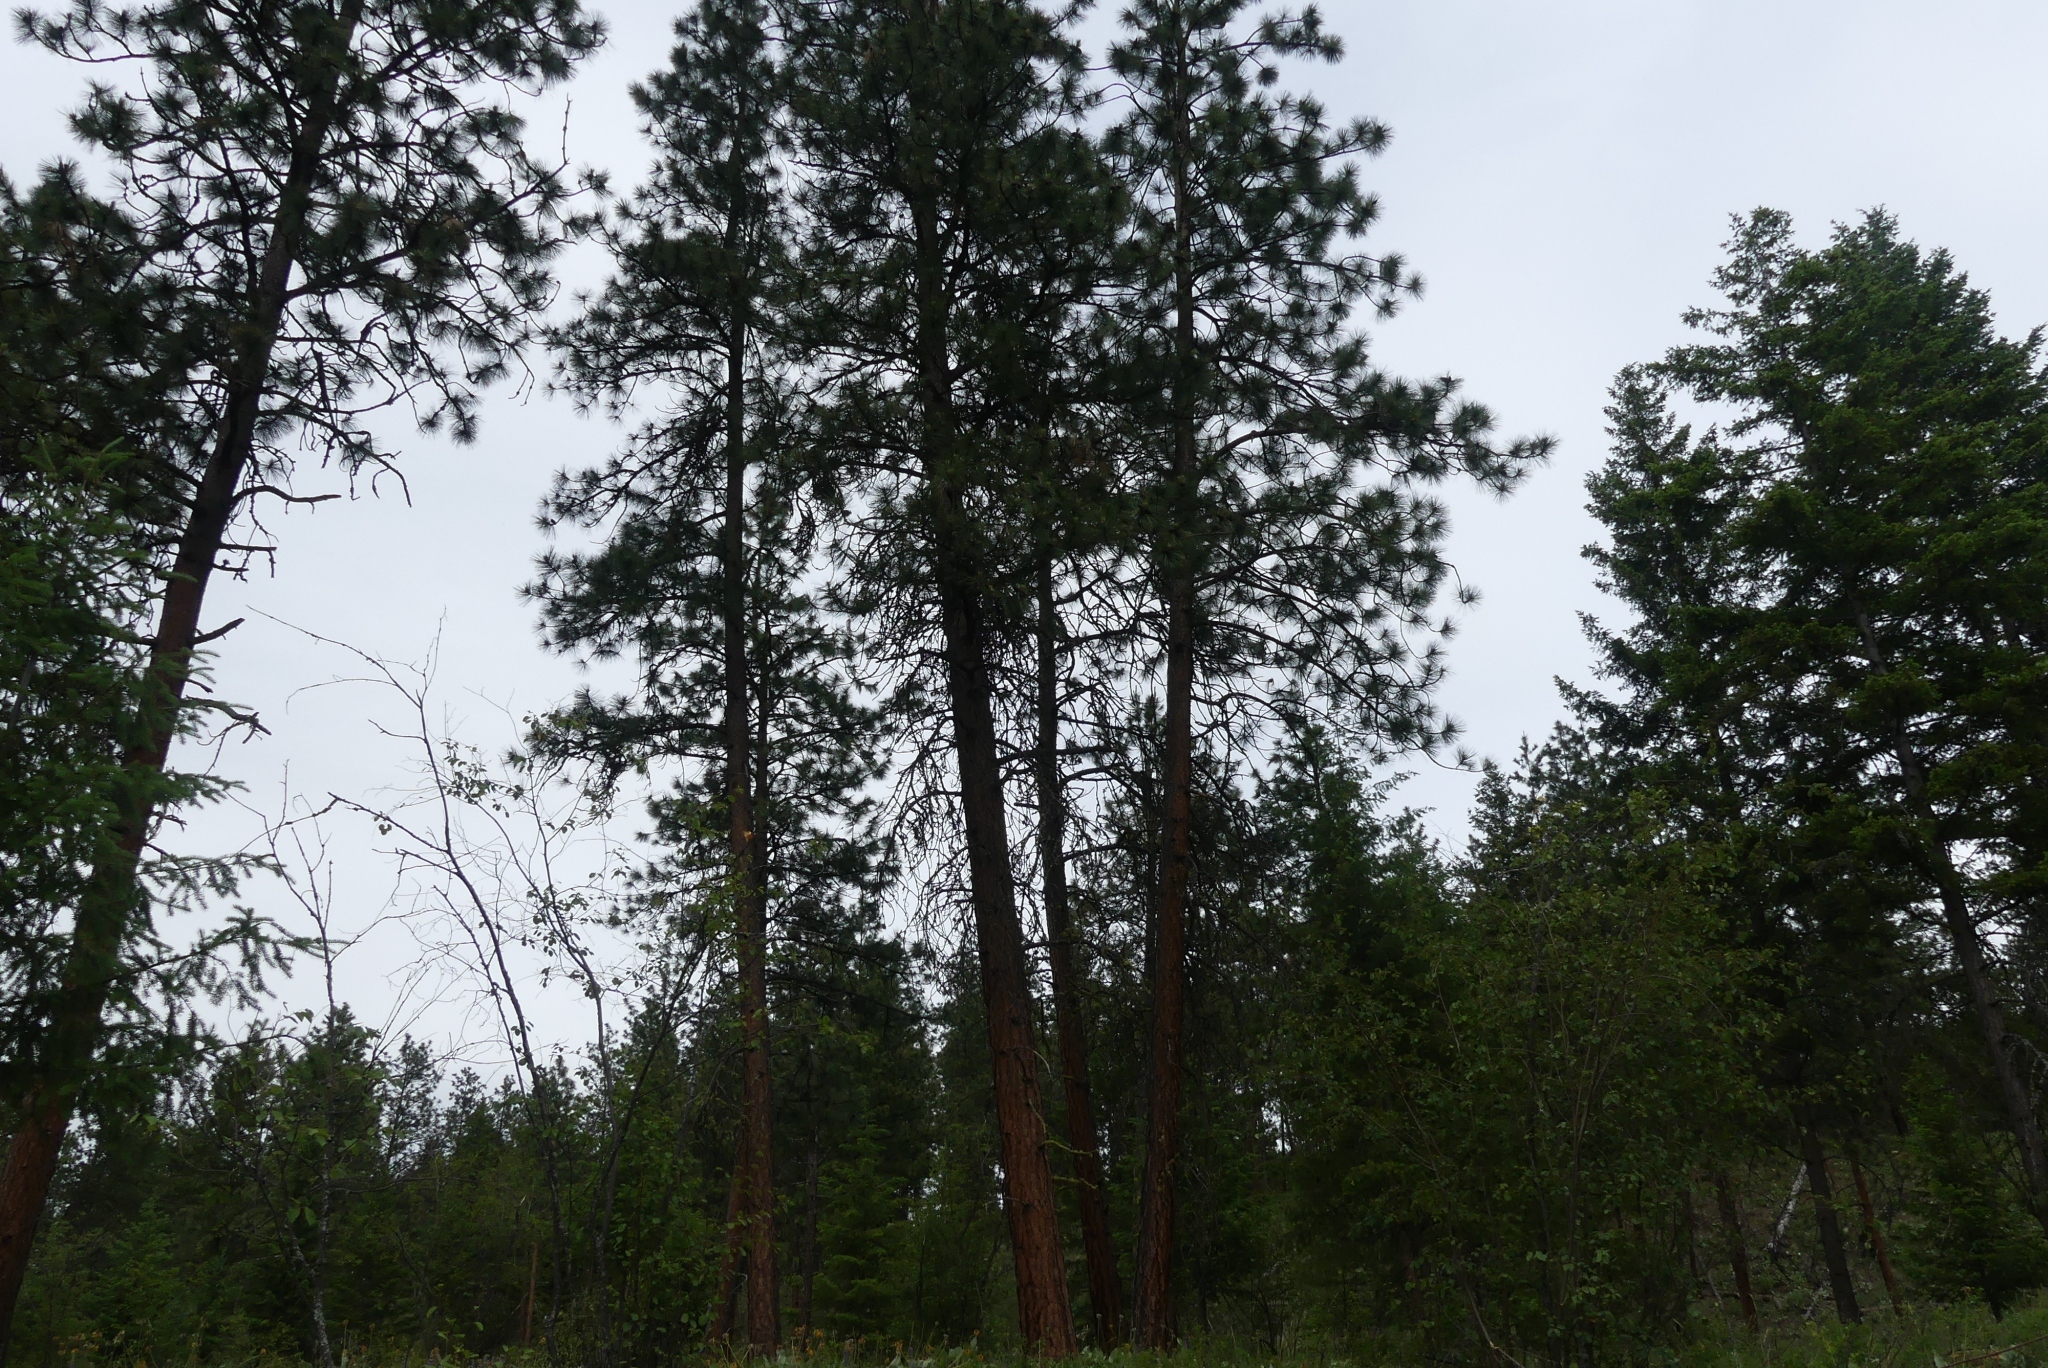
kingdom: Plantae
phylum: Tracheophyta
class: Pinopsida
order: Pinales
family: Pinaceae
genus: Pinus
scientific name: Pinus ponderosa
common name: Western yellow-pine
